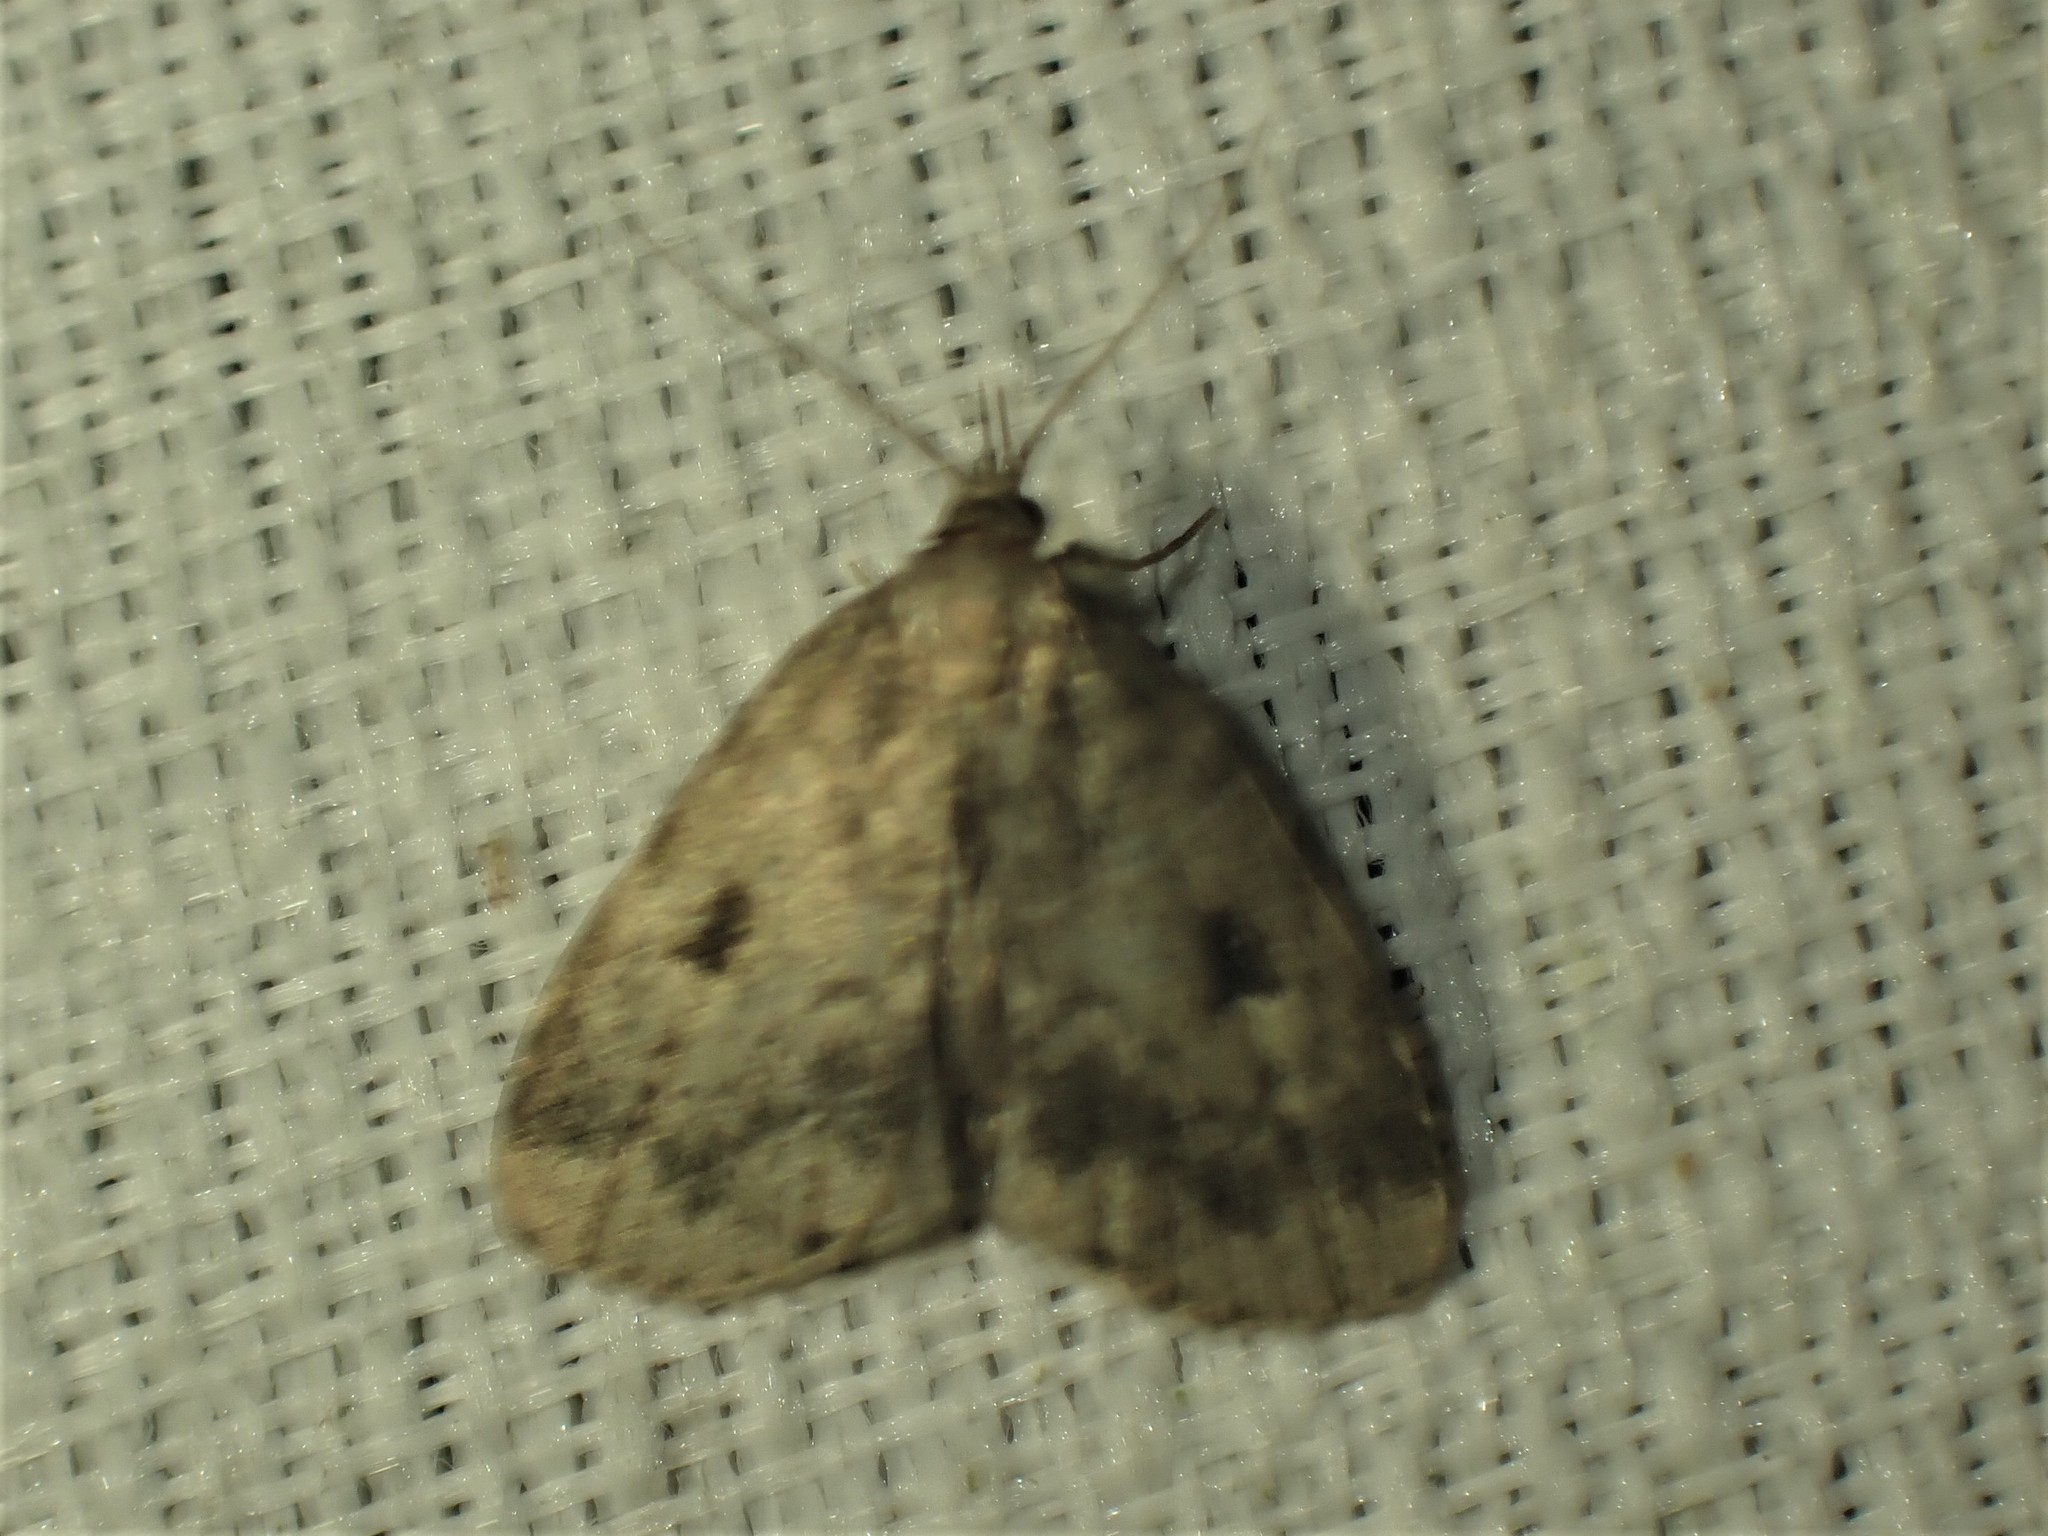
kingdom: Animalia
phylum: Arthropoda
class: Insecta
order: Lepidoptera
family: Erebidae
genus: Paradelta
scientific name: Paradelta Parahypenodes quadralis
